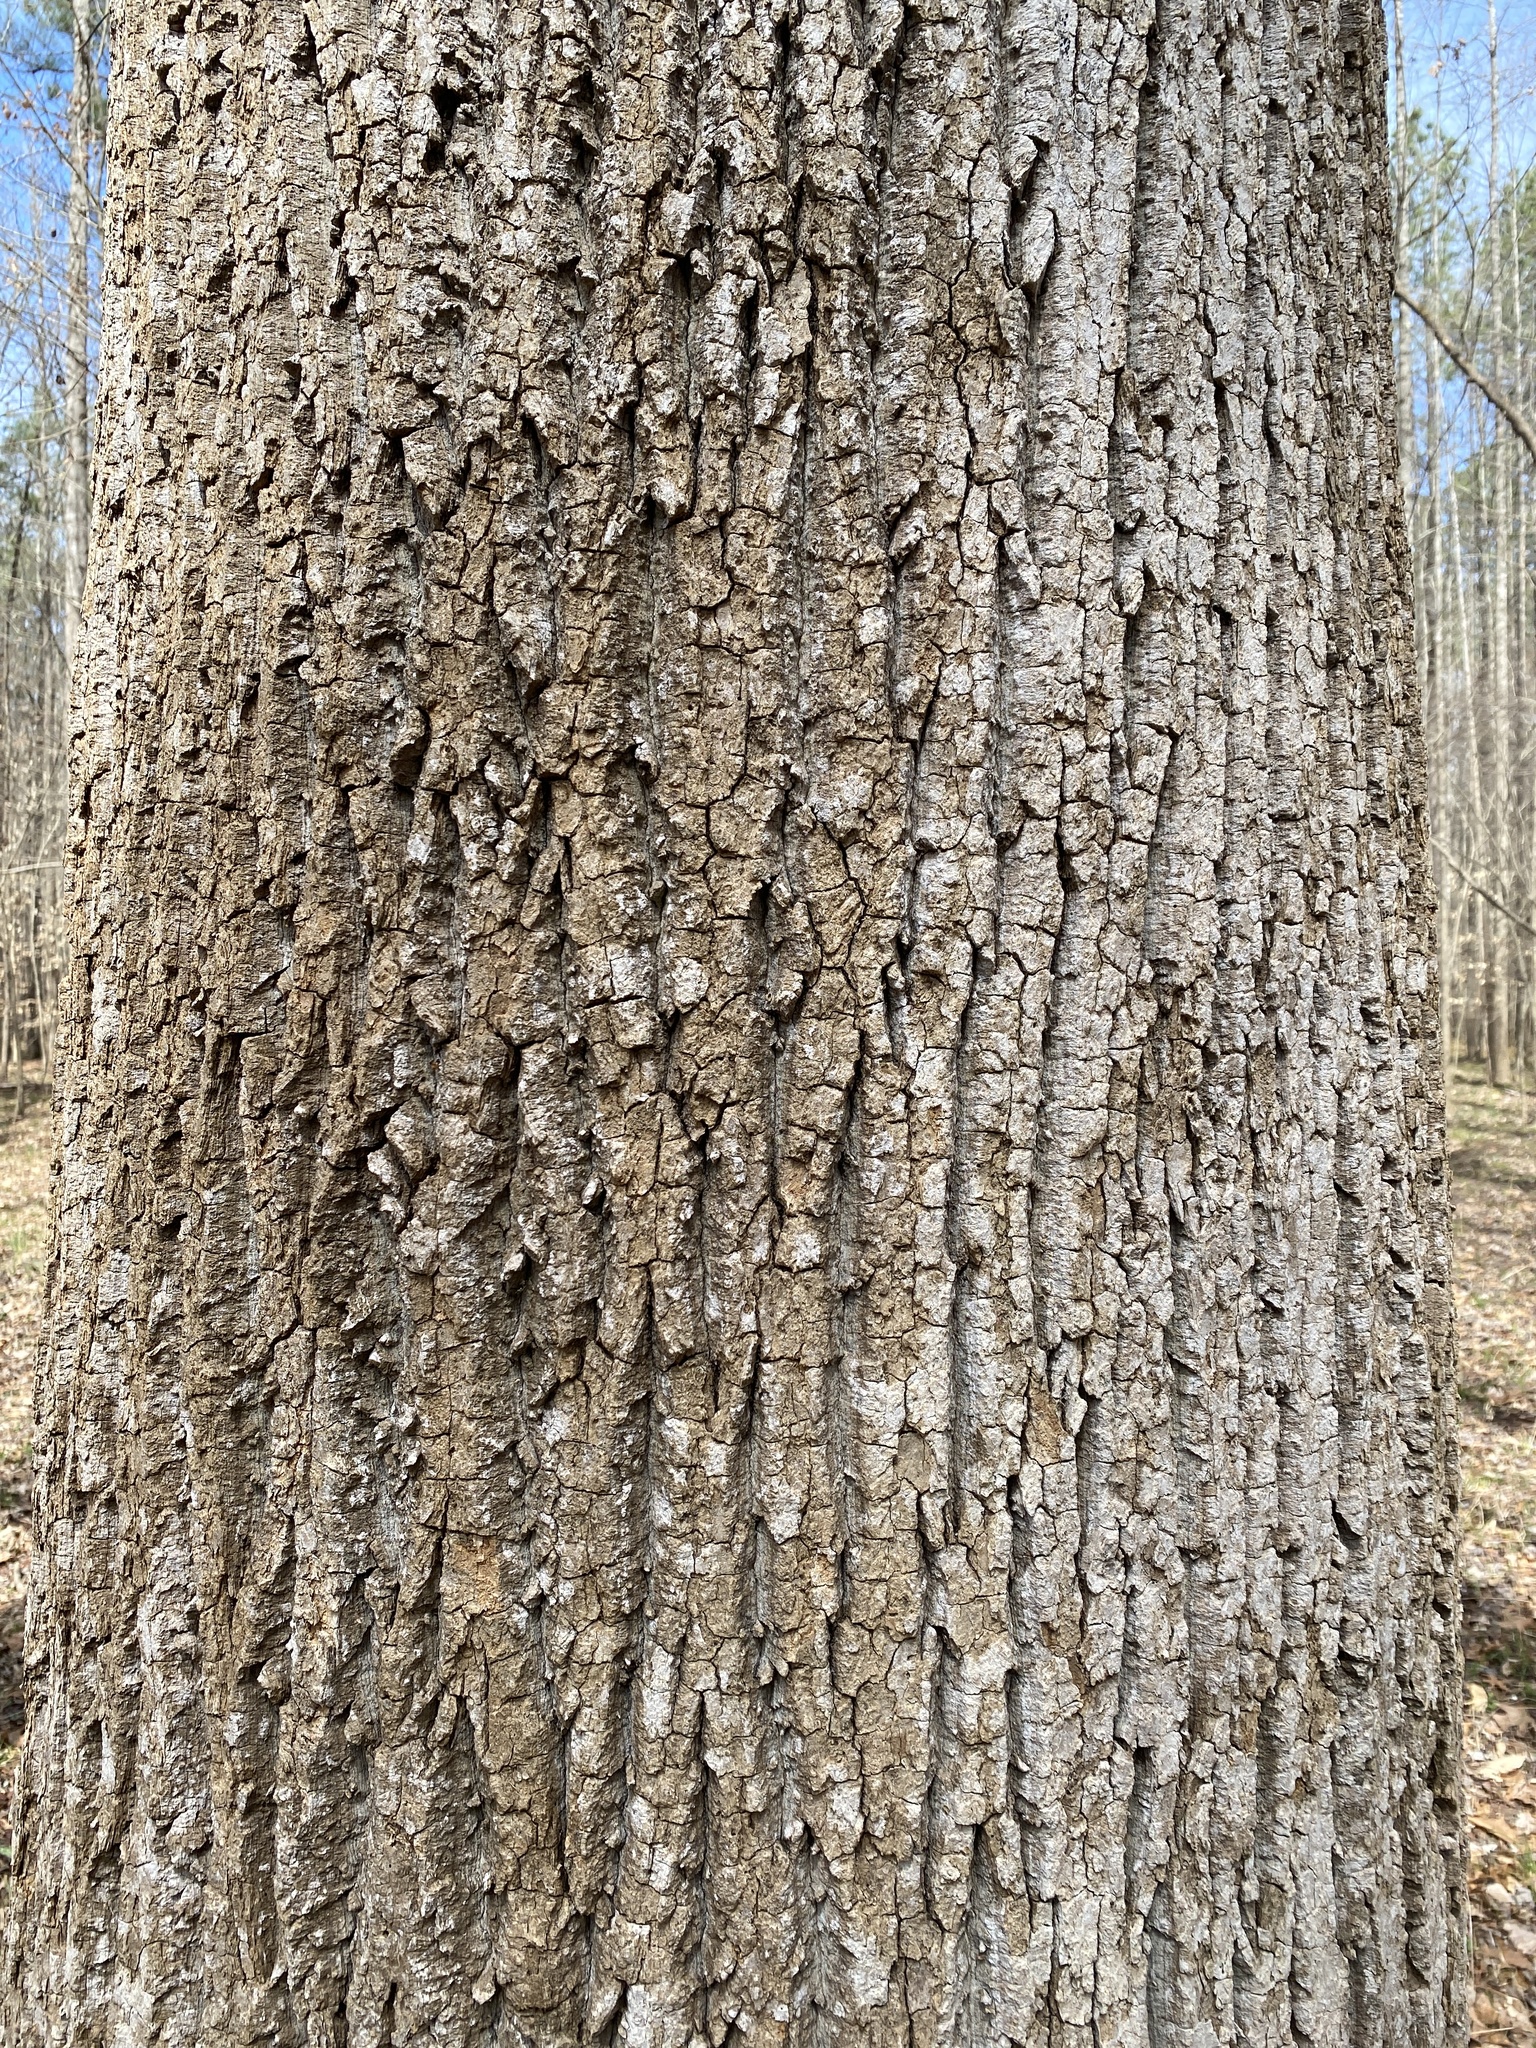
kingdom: Plantae
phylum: Tracheophyta
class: Magnoliopsida
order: Magnoliales
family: Magnoliaceae
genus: Liriodendron
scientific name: Liriodendron tulipifera
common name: Tulip tree
